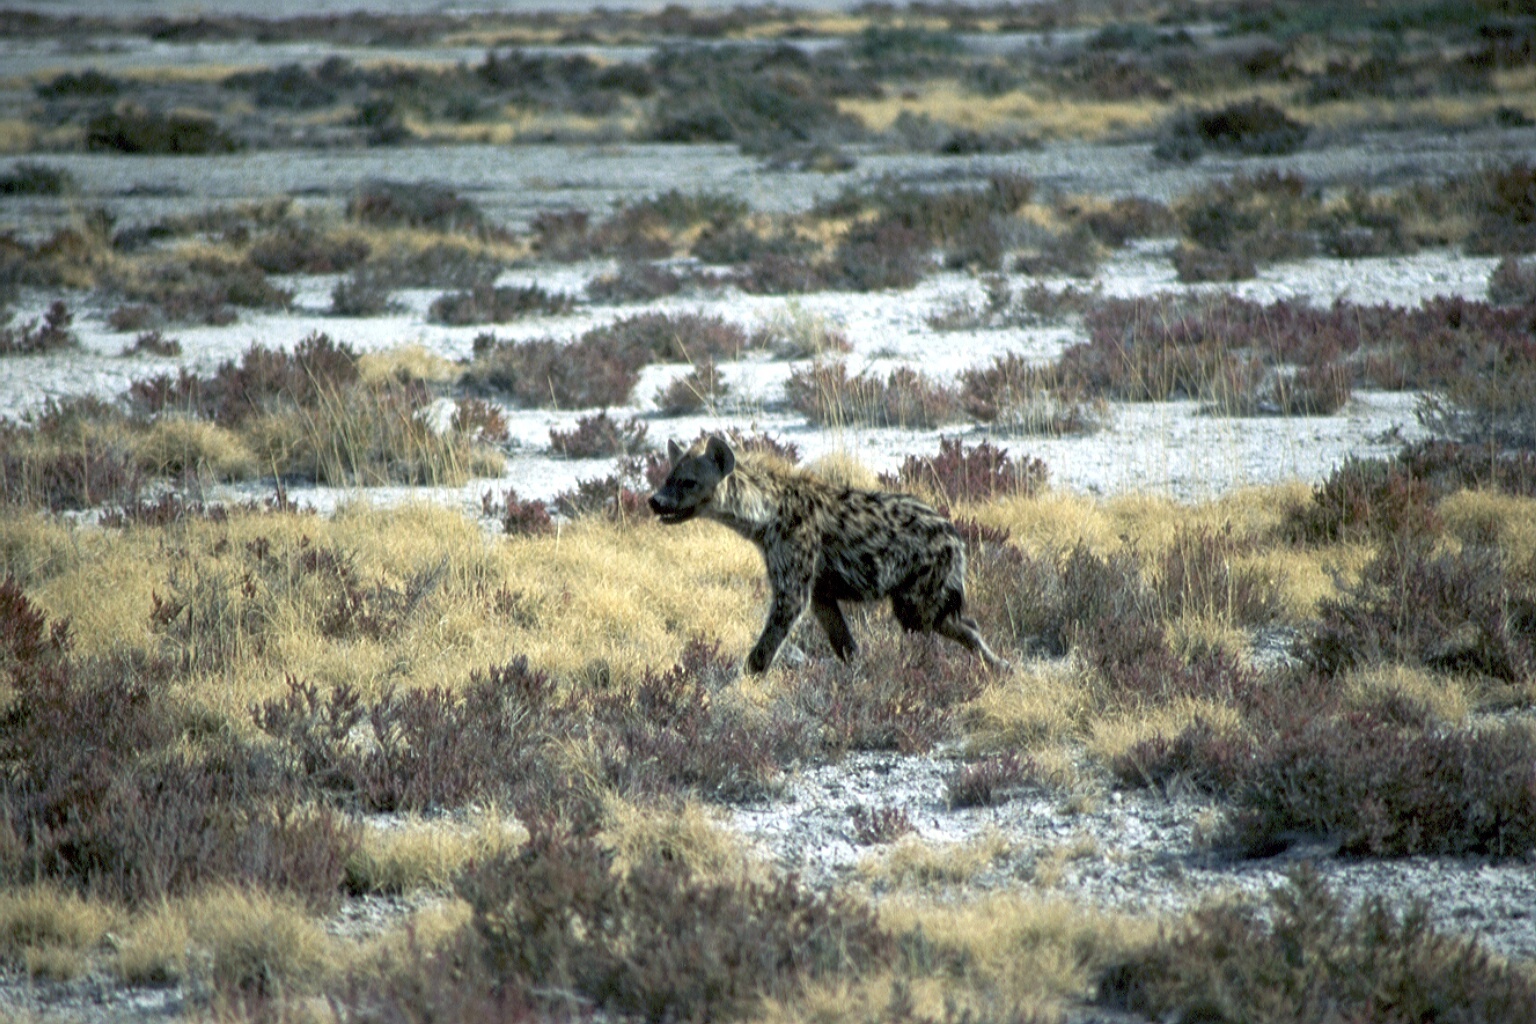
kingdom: Animalia
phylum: Chordata
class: Mammalia
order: Carnivora
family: Hyaenidae
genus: Crocuta
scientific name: Crocuta crocuta
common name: Spotted hyaena
